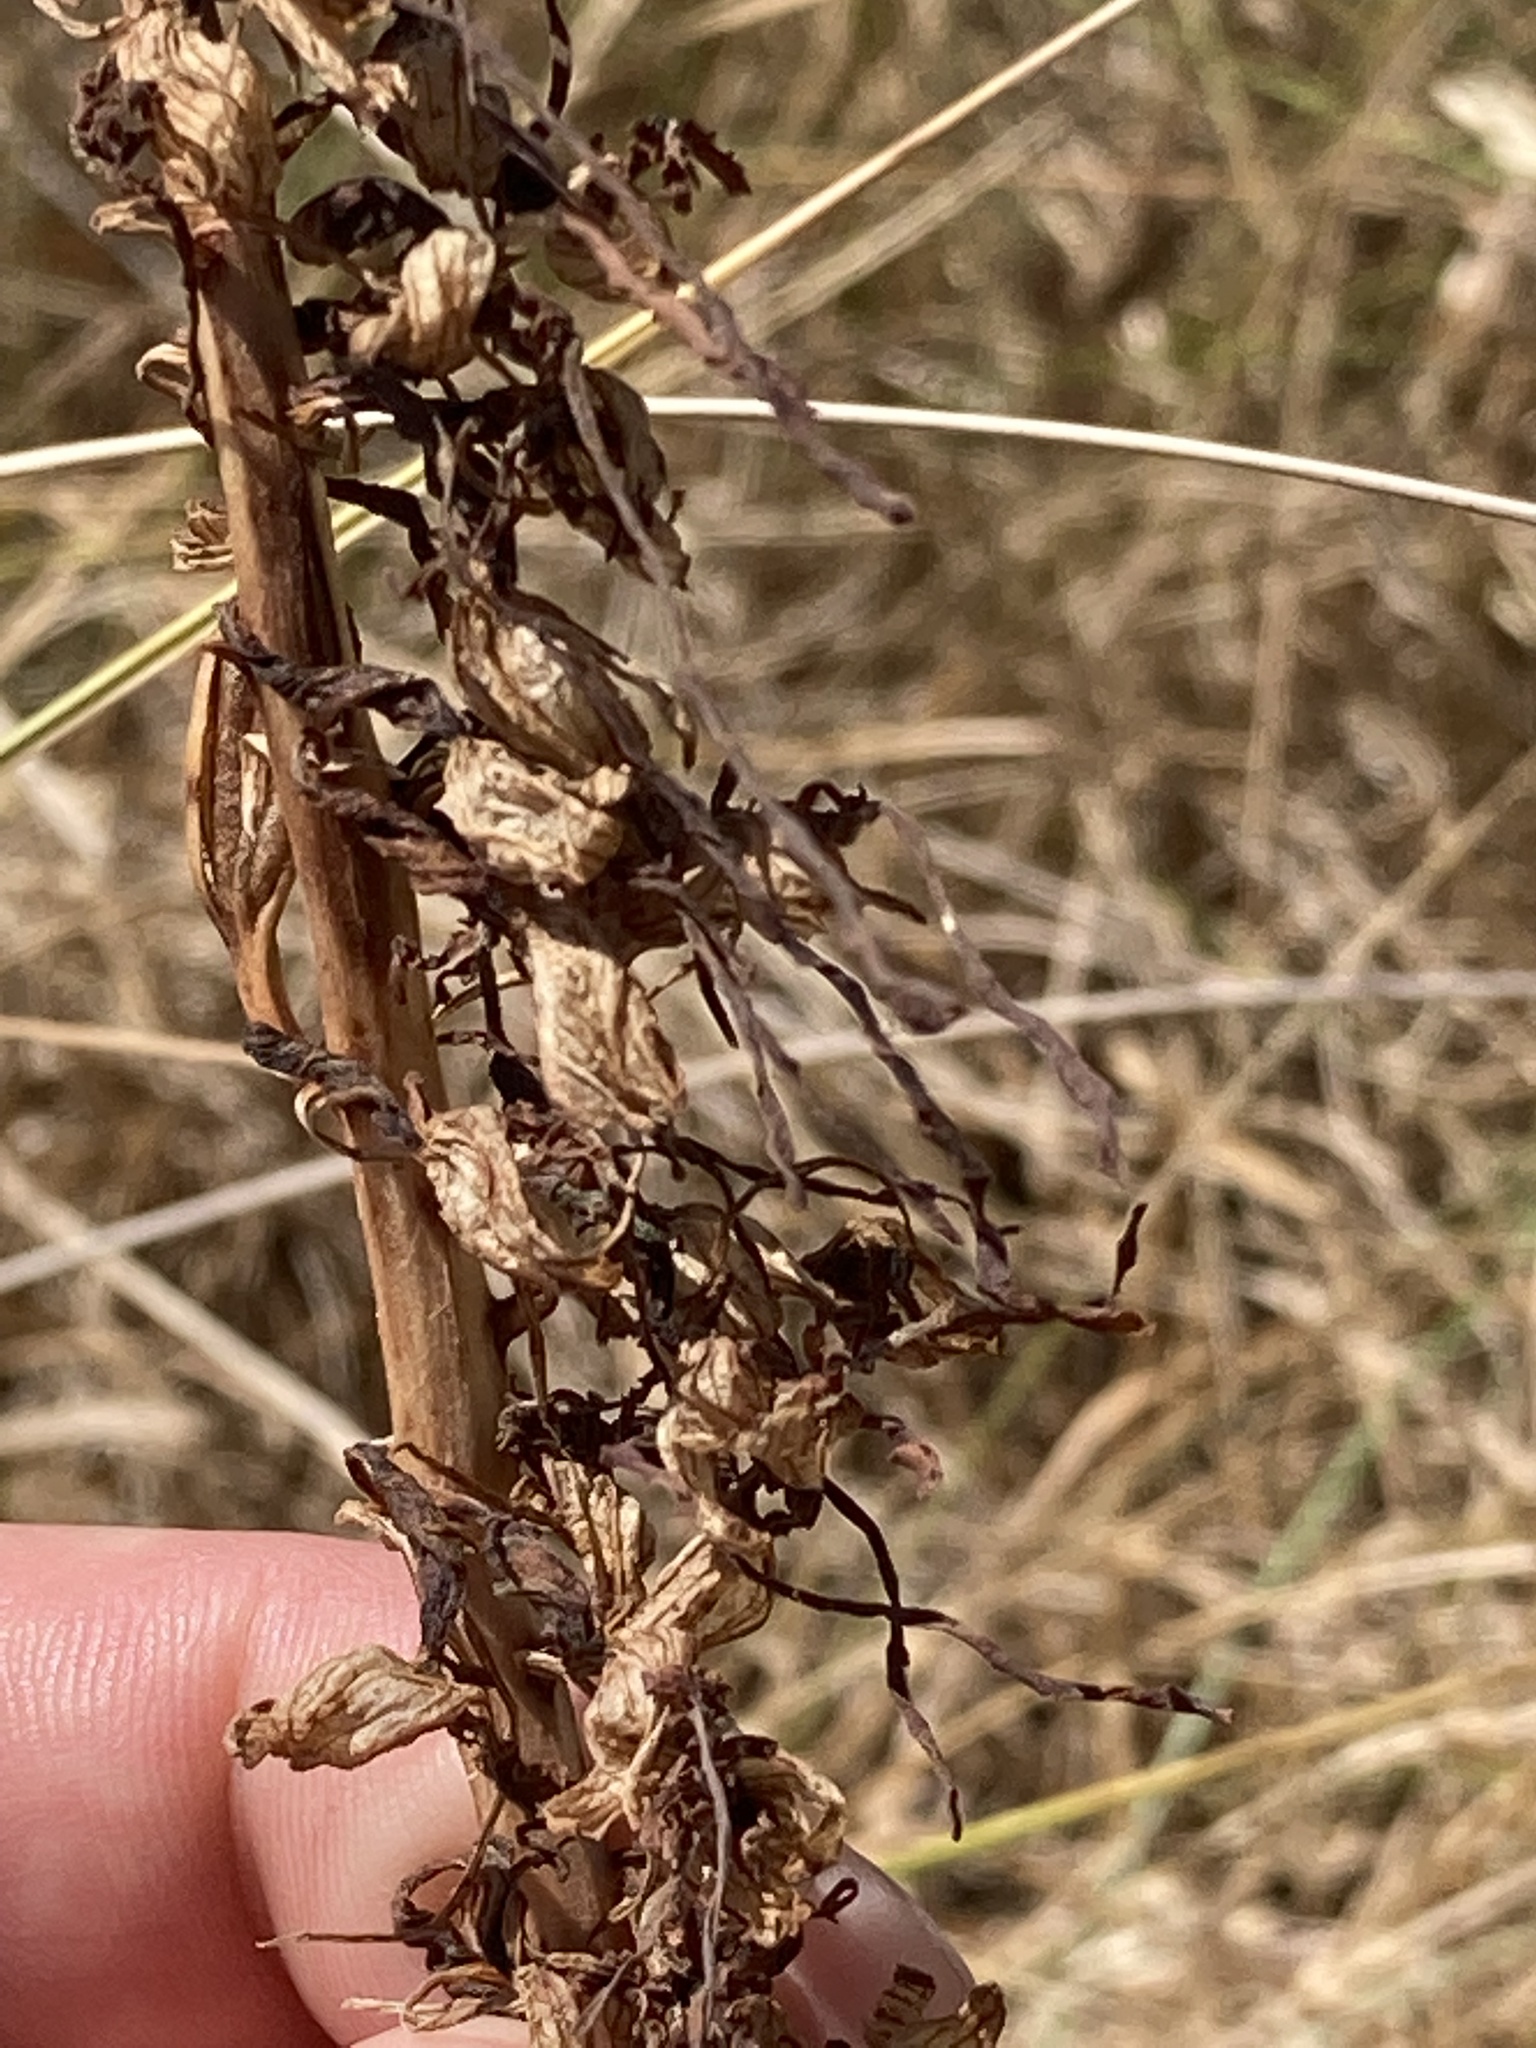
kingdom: Plantae
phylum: Tracheophyta
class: Liliopsida
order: Asparagales
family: Orchidaceae
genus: Himantoglossum
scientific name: Himantoglossum hircinum
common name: Lizard orchid
